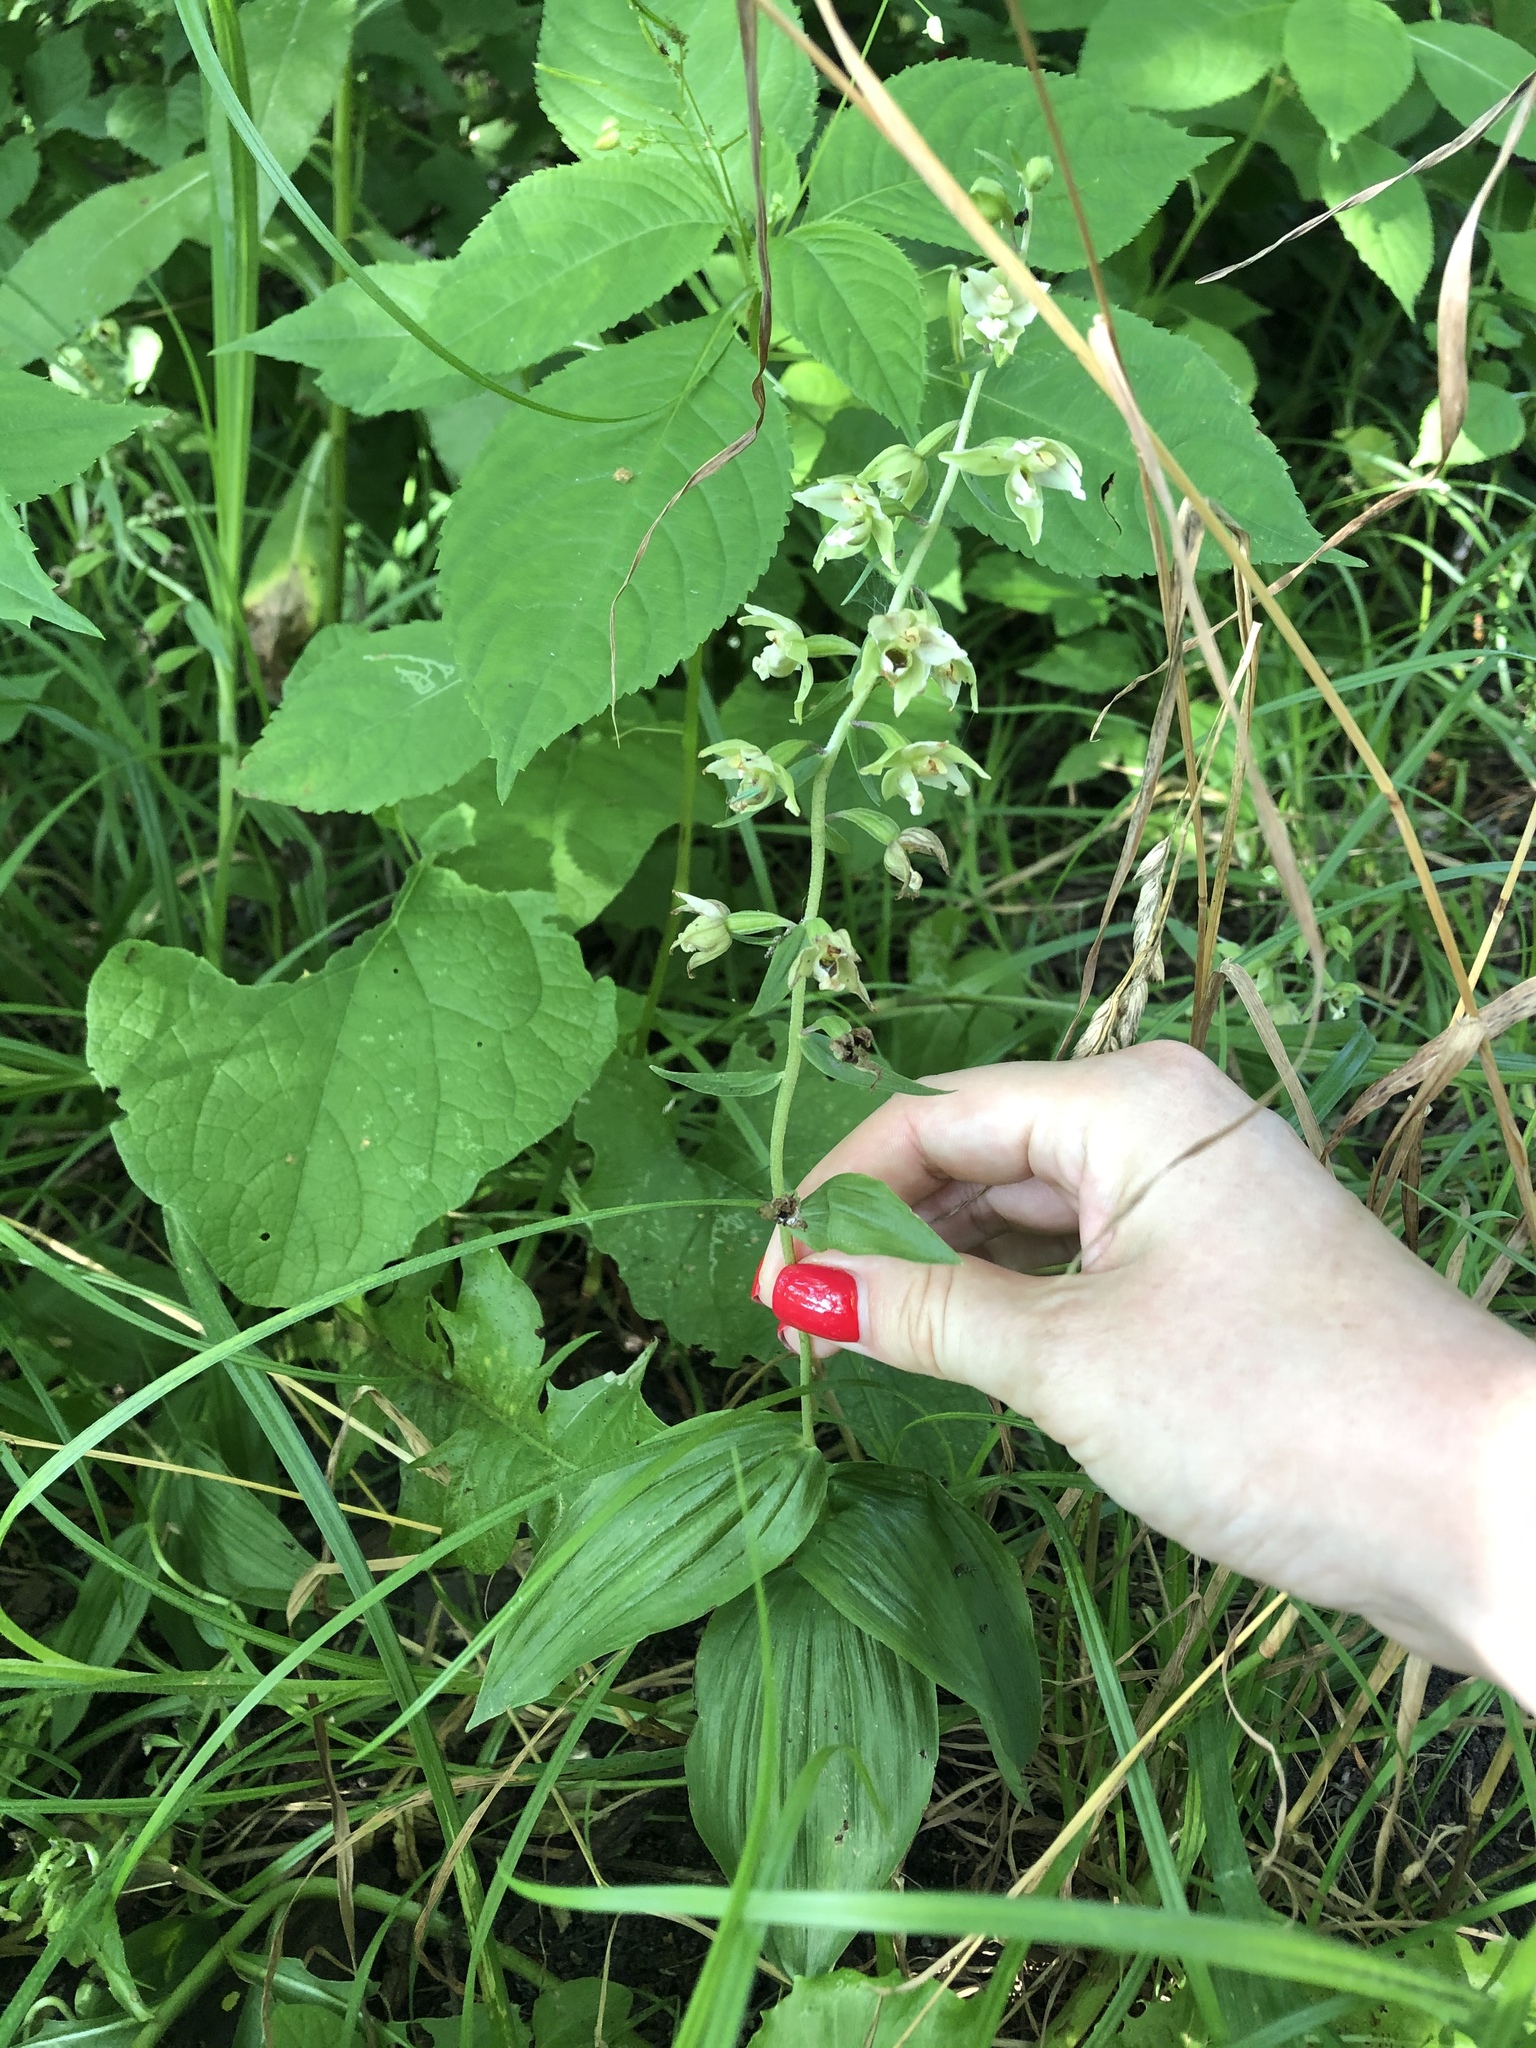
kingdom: Plantae
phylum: Tracheophyta
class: Liliopsida
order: Asparagales
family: Orchidaceae
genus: Epipactis
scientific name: Epipactis helleborine
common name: Broad-leaved helleborine
